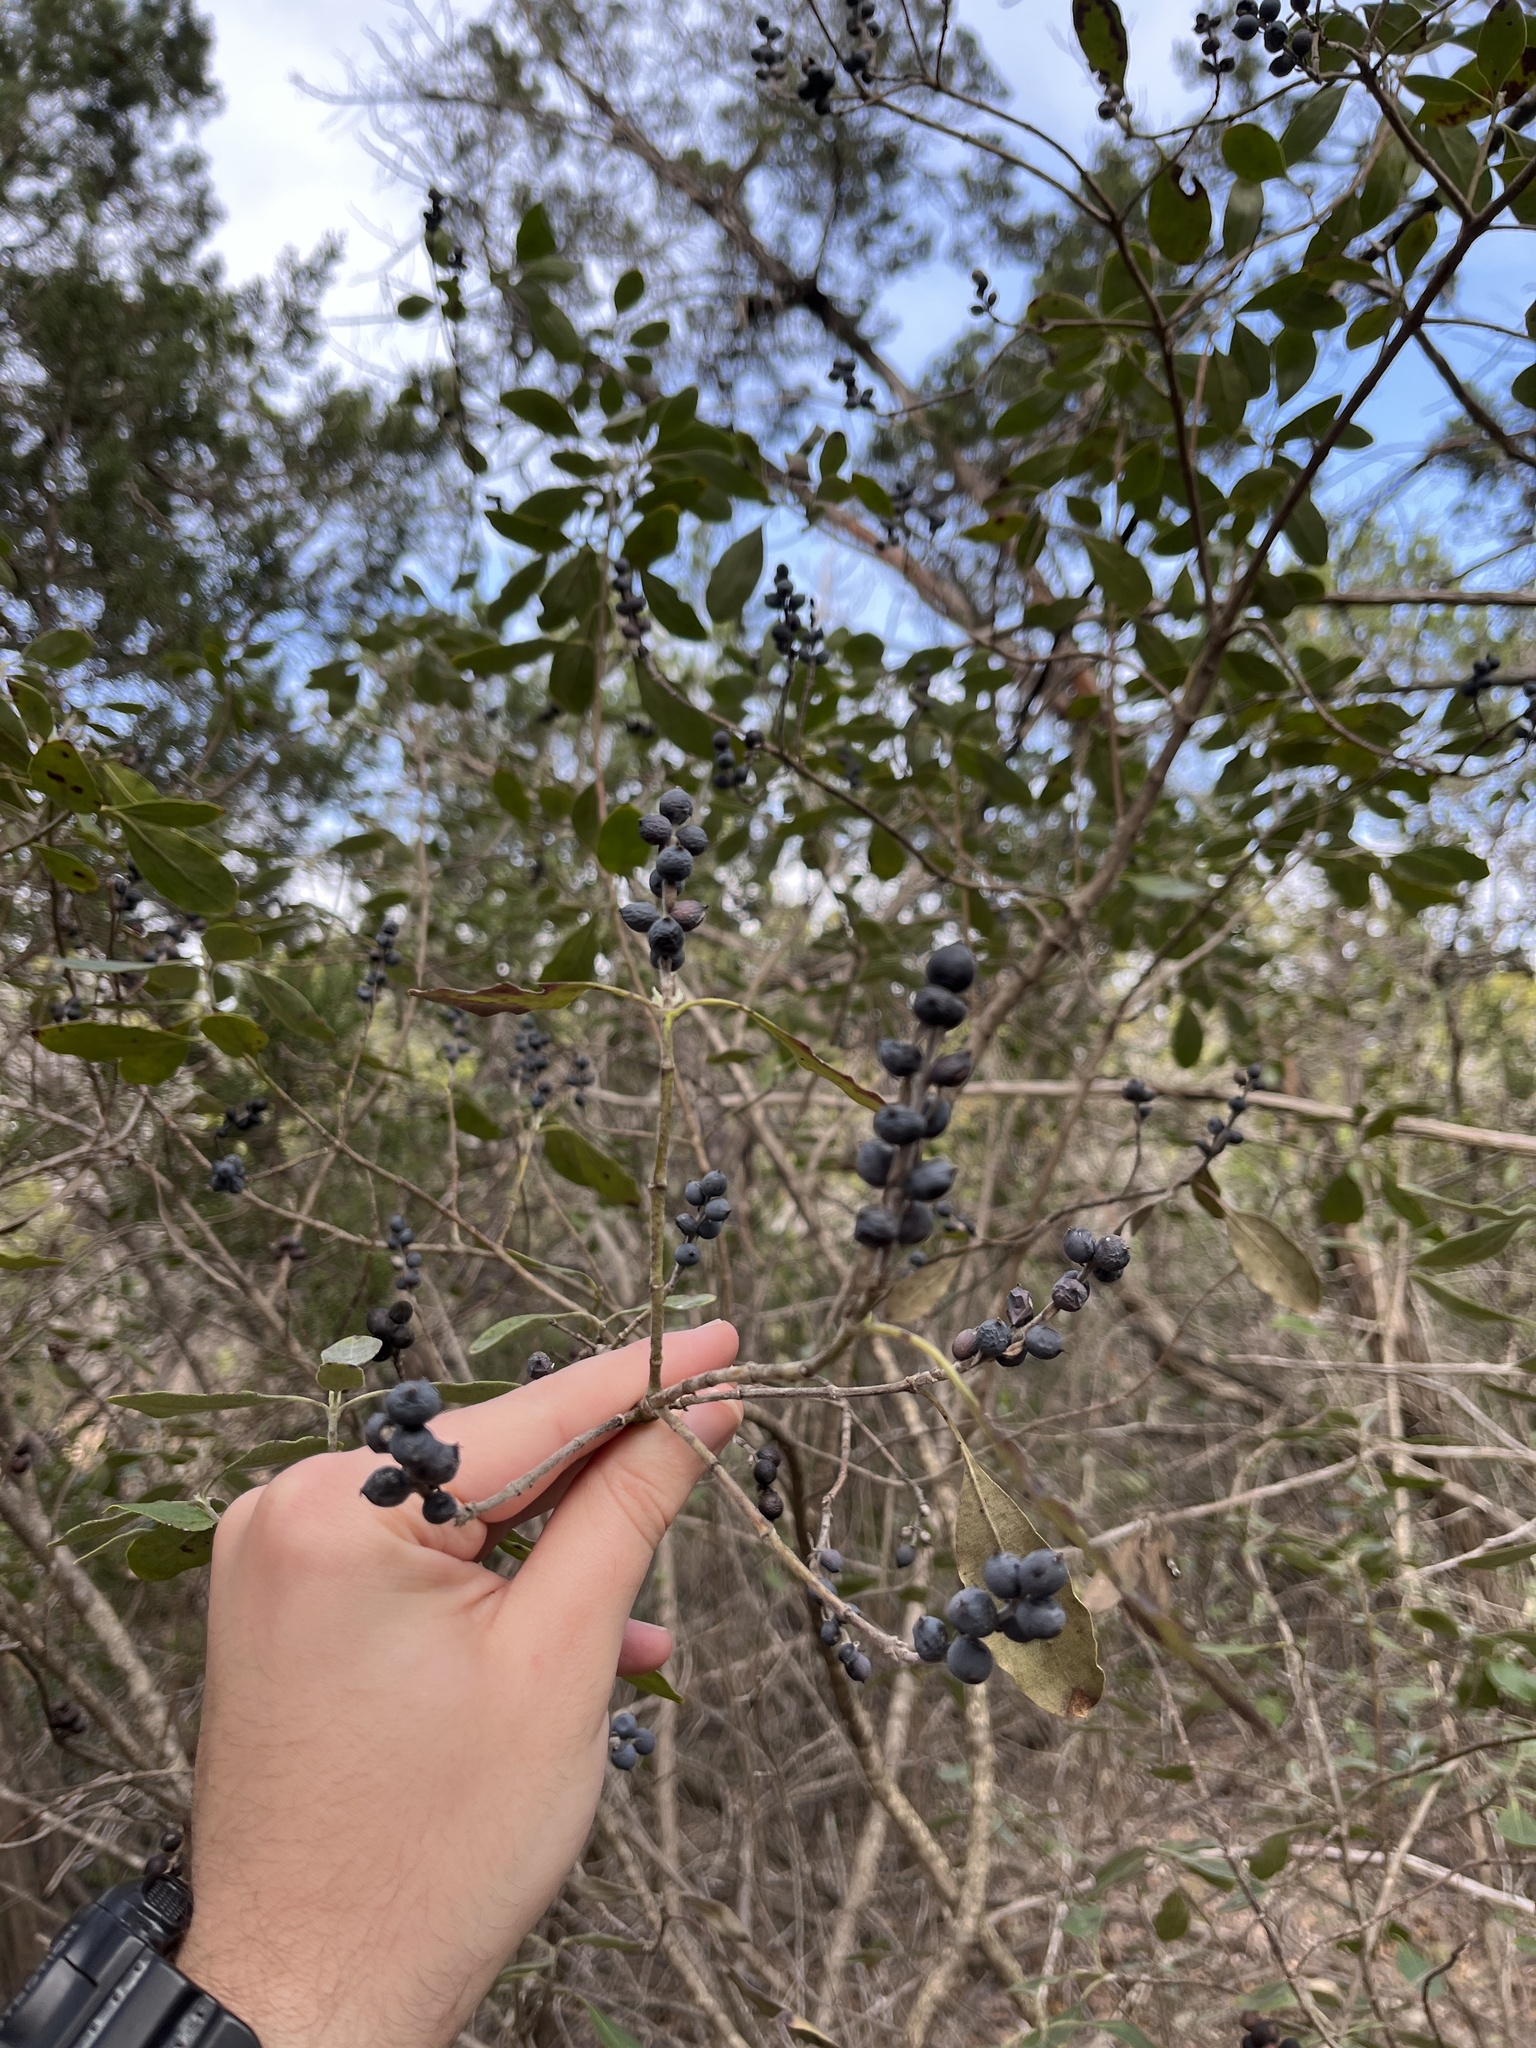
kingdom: Plantae
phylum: Tracheophyta
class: Magnoliopsida
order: Garryales
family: Garryaceae
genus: Garrya
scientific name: Garrya lindheimeri
